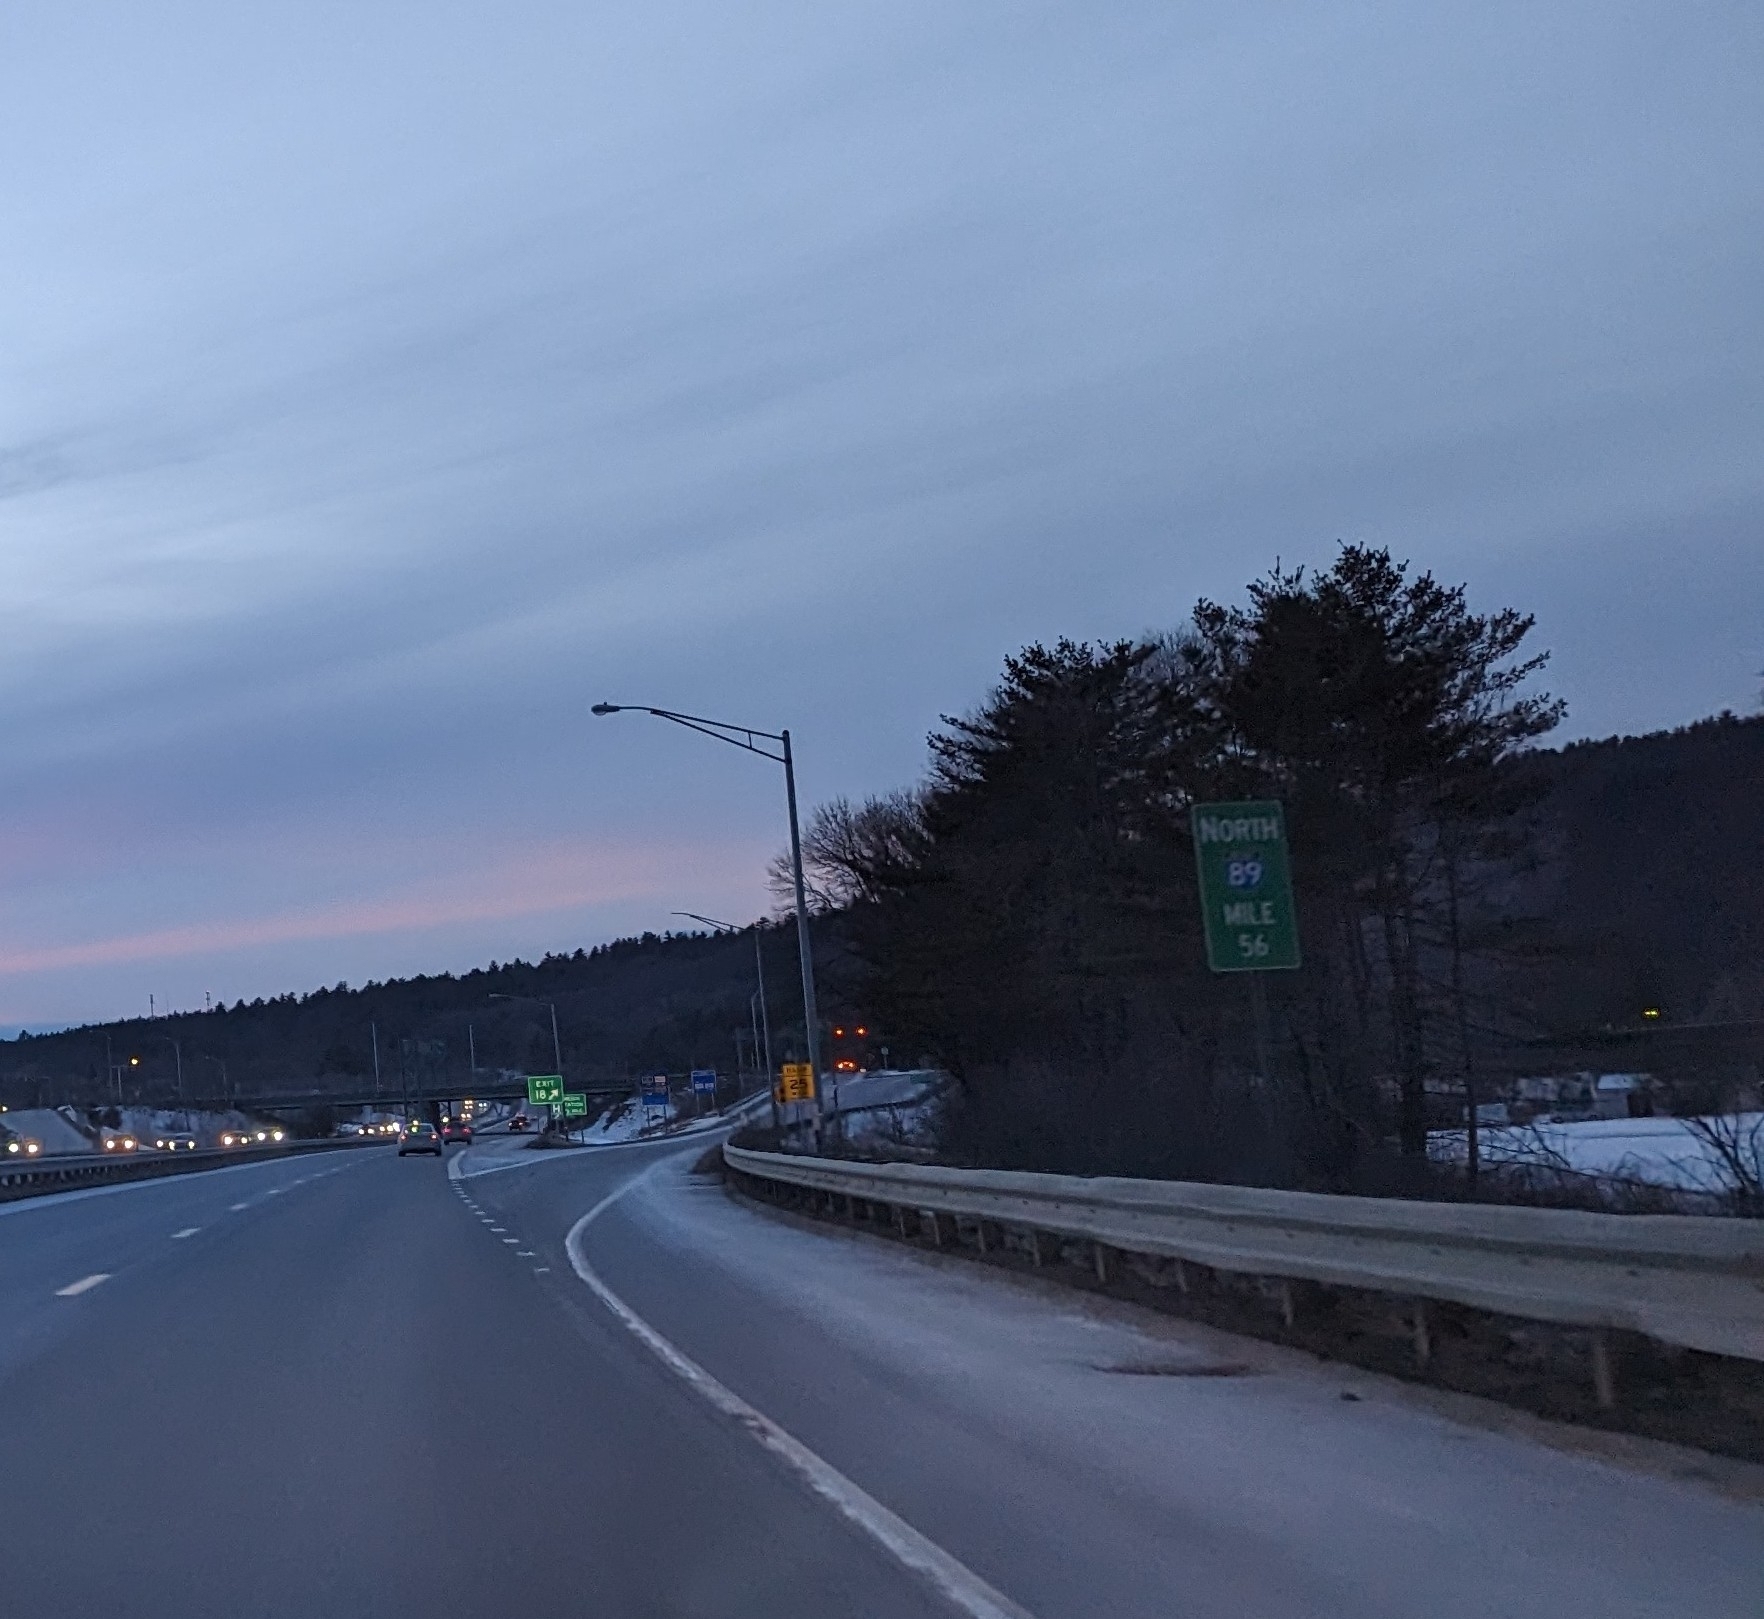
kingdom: Plantae
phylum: Tracheophyta
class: Pinopsida
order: Pinales
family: Pinaceae
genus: Pinus
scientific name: Pinus strobus
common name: Weymouth pine
